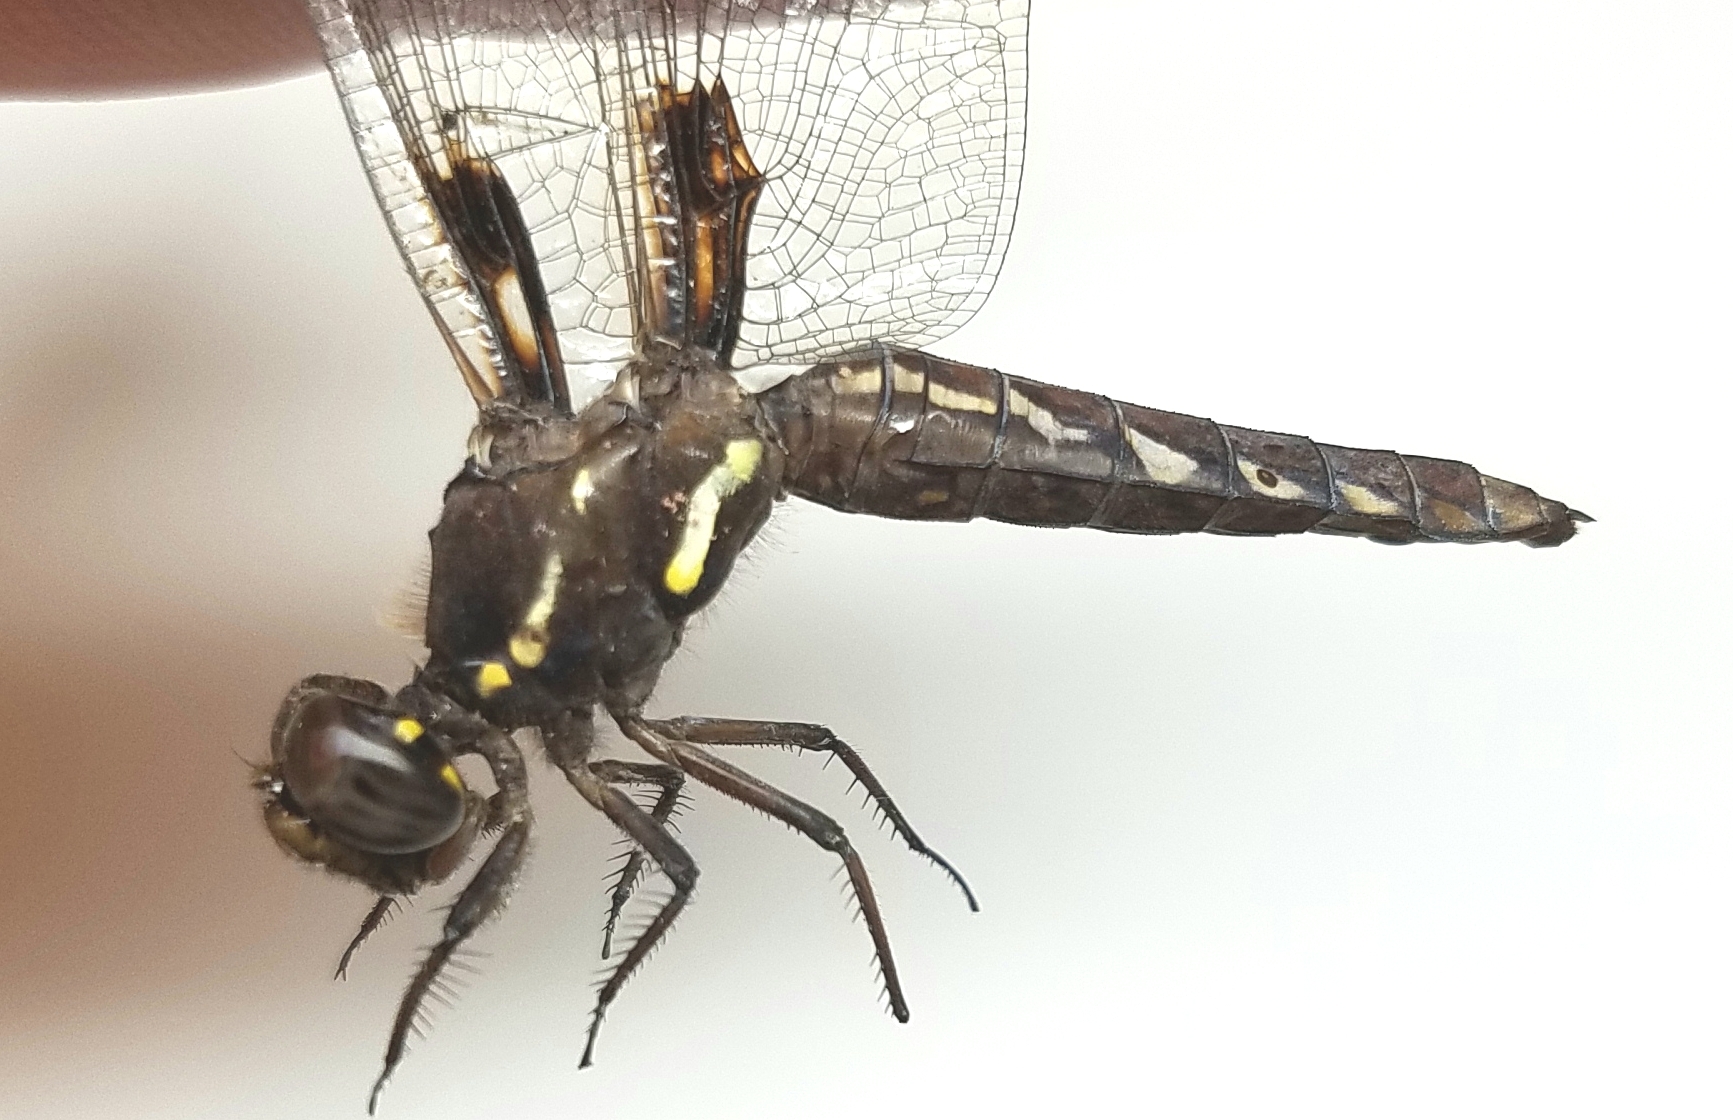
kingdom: Animalia
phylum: Arthropoda
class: Insecta
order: Odonata
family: Libellulidae
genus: Plathemis
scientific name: Plathemis lydia
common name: Common whitetail
